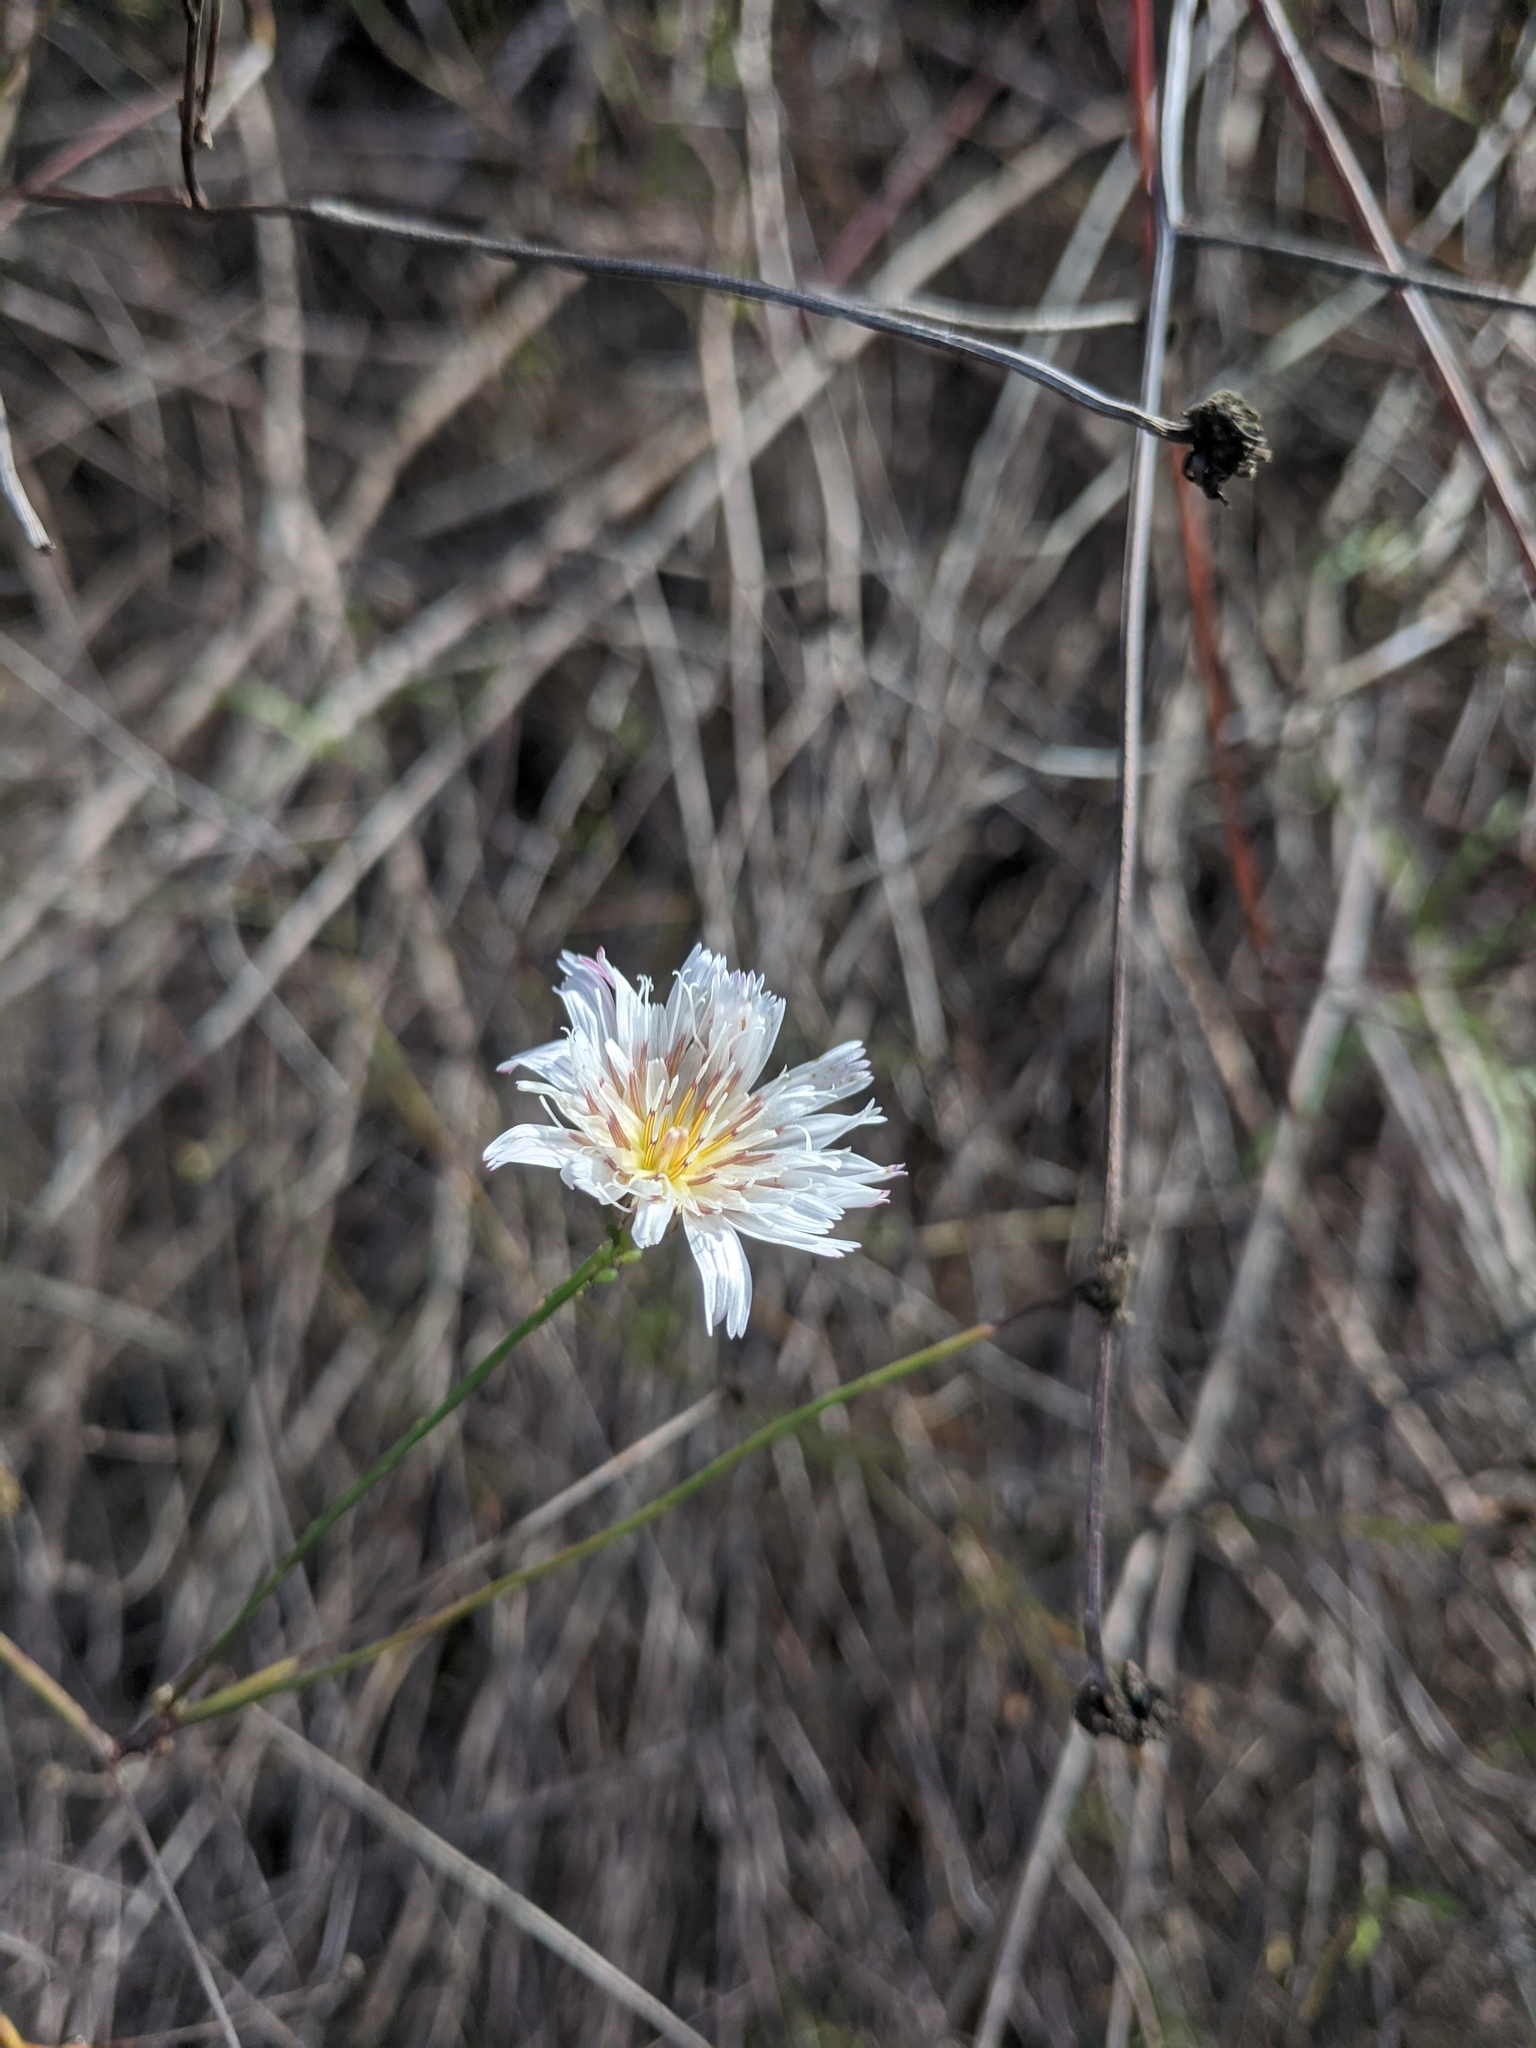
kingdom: Plantae
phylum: Tracheophyta
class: Magnoliopsida
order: Asterales
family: Asteraceae
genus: Malacothrix
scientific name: Malacothrix saxatilis
